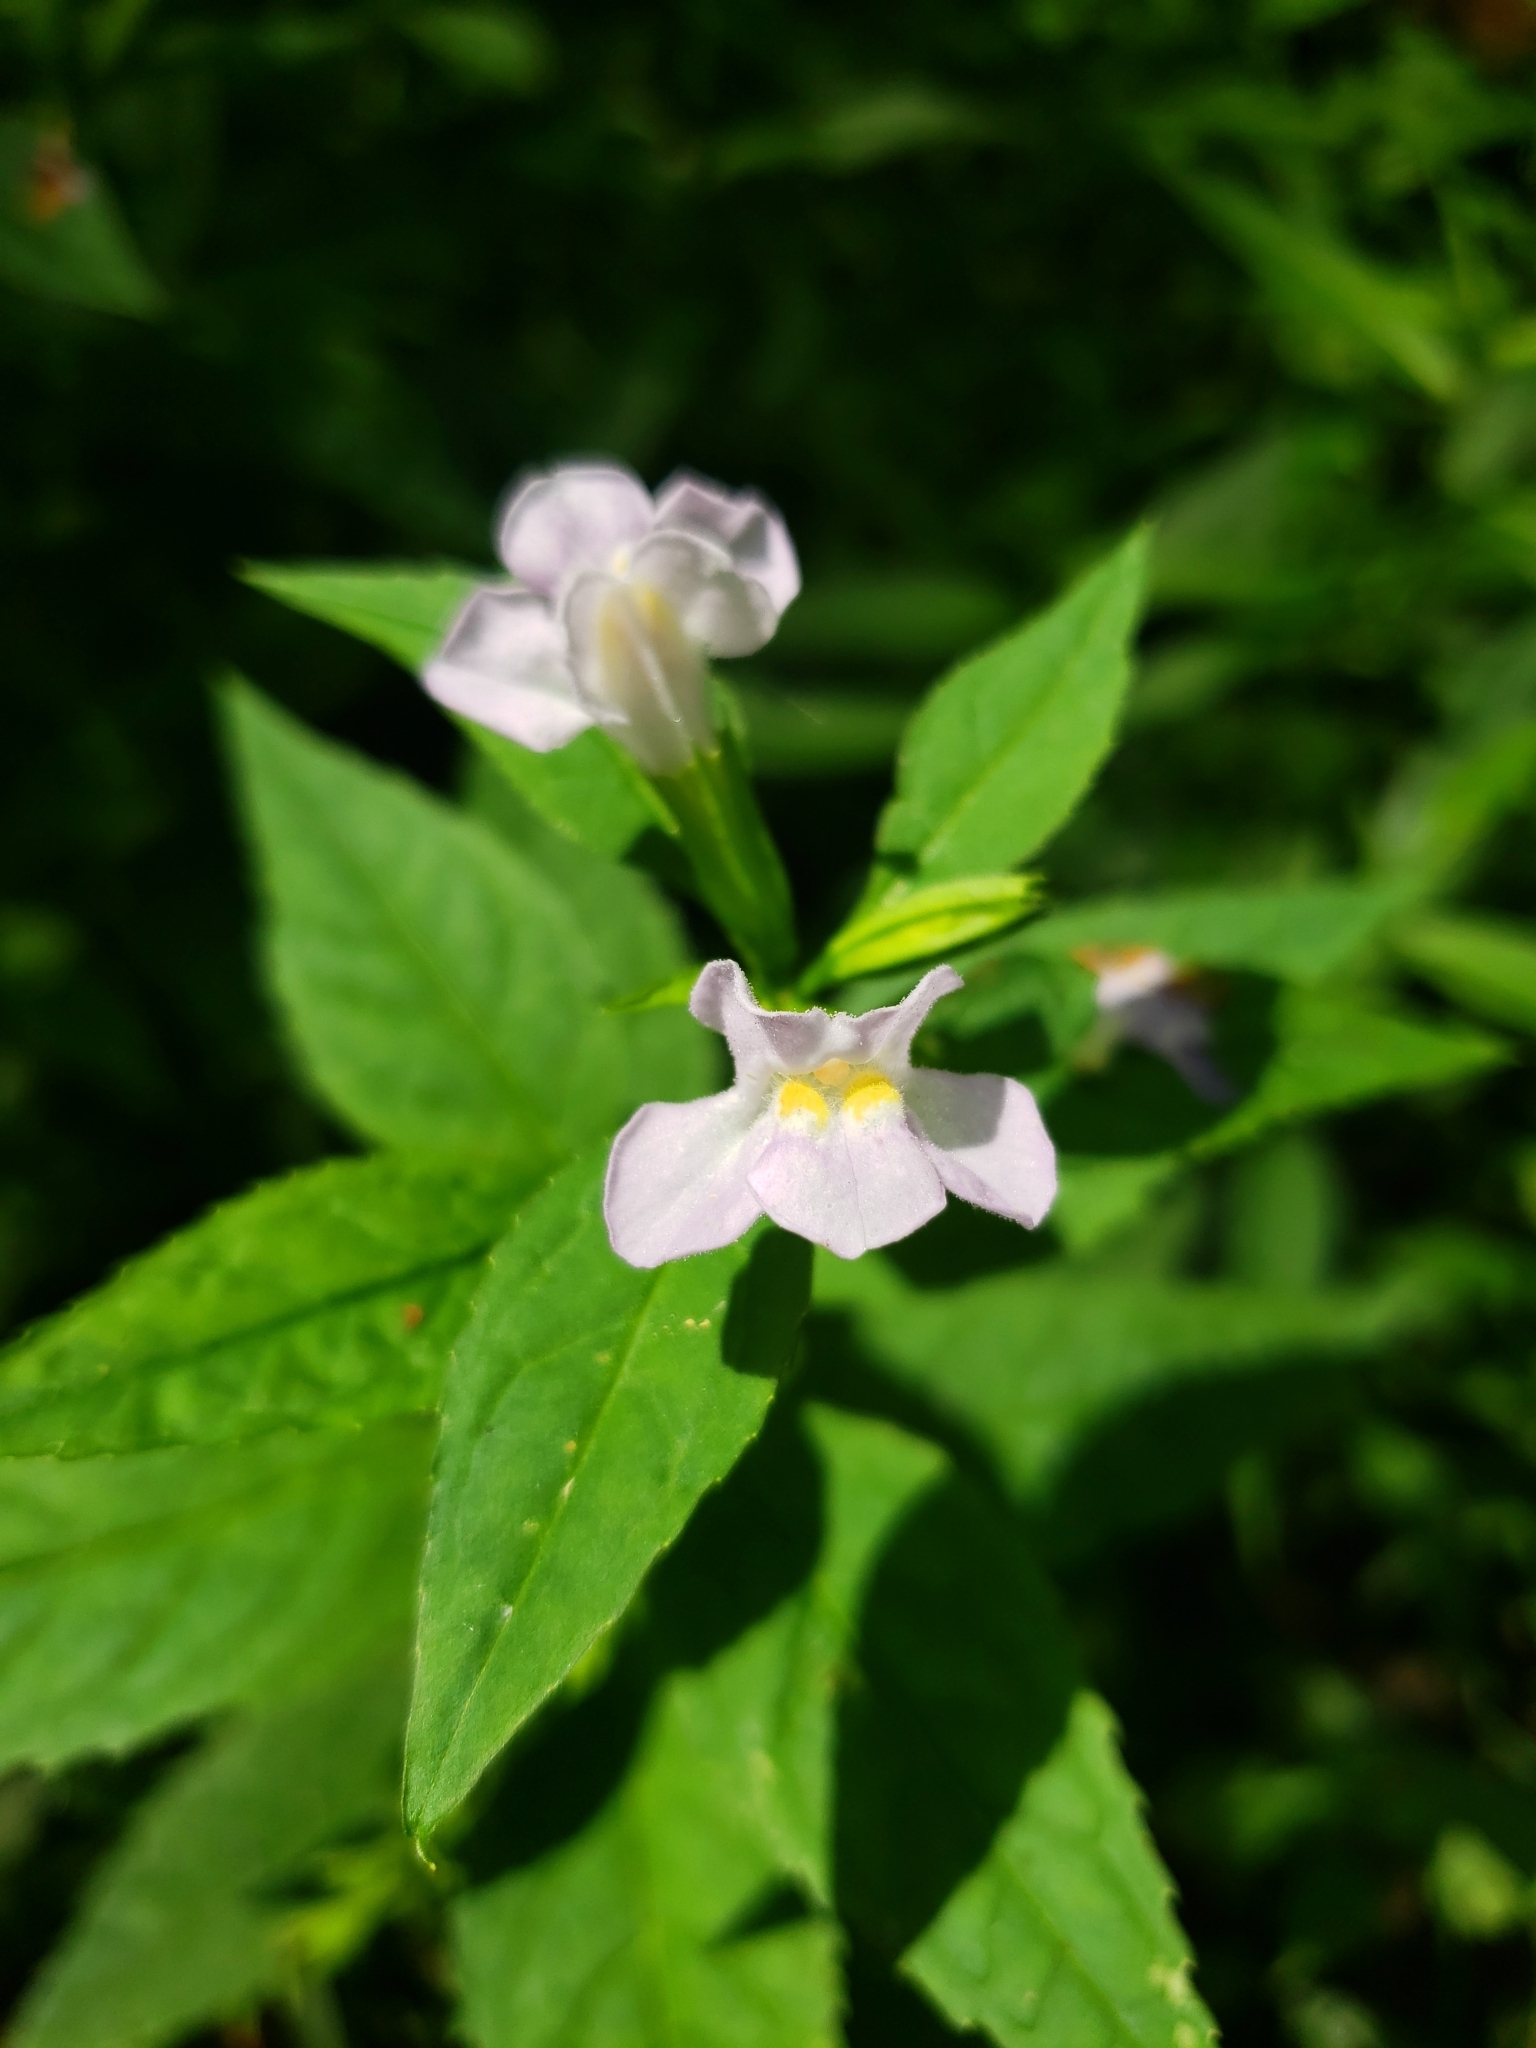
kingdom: Plantae
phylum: Tracheophyta
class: Magnoliopsida
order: Lamiales
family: Phrymaceae
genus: Mimulus
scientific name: Mimulus alatus
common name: Sharp-wing monkey-flower
